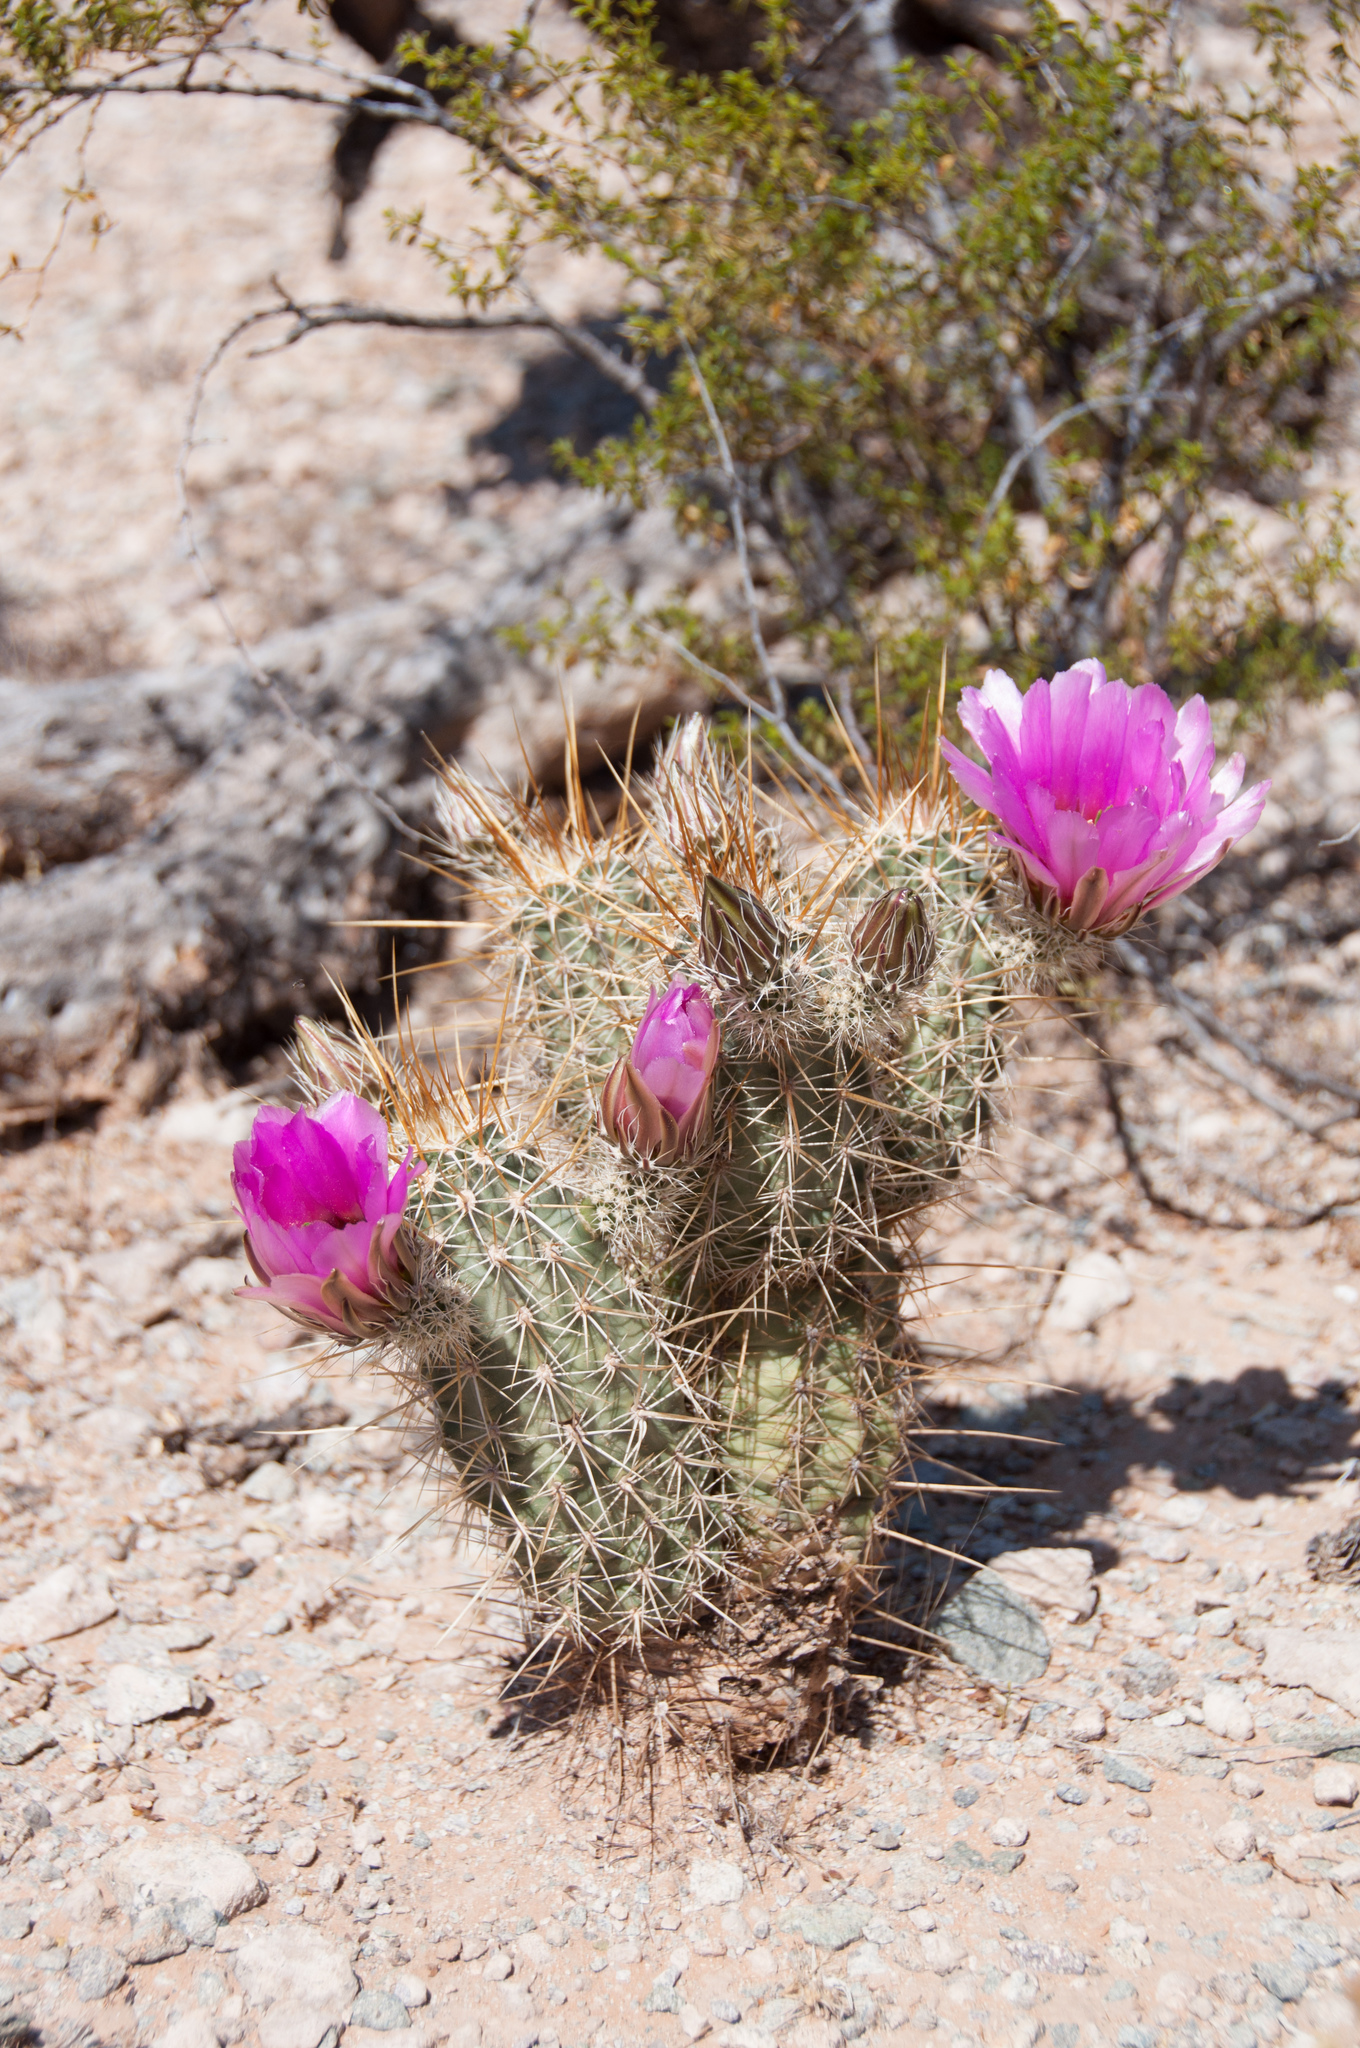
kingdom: Plantae
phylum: Tracheophyta
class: Magnoliopsida
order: Caryophyllales
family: Cactaceae
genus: Echinocereus
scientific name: Echinocereus fasciculatus
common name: Bundle hedgehog
